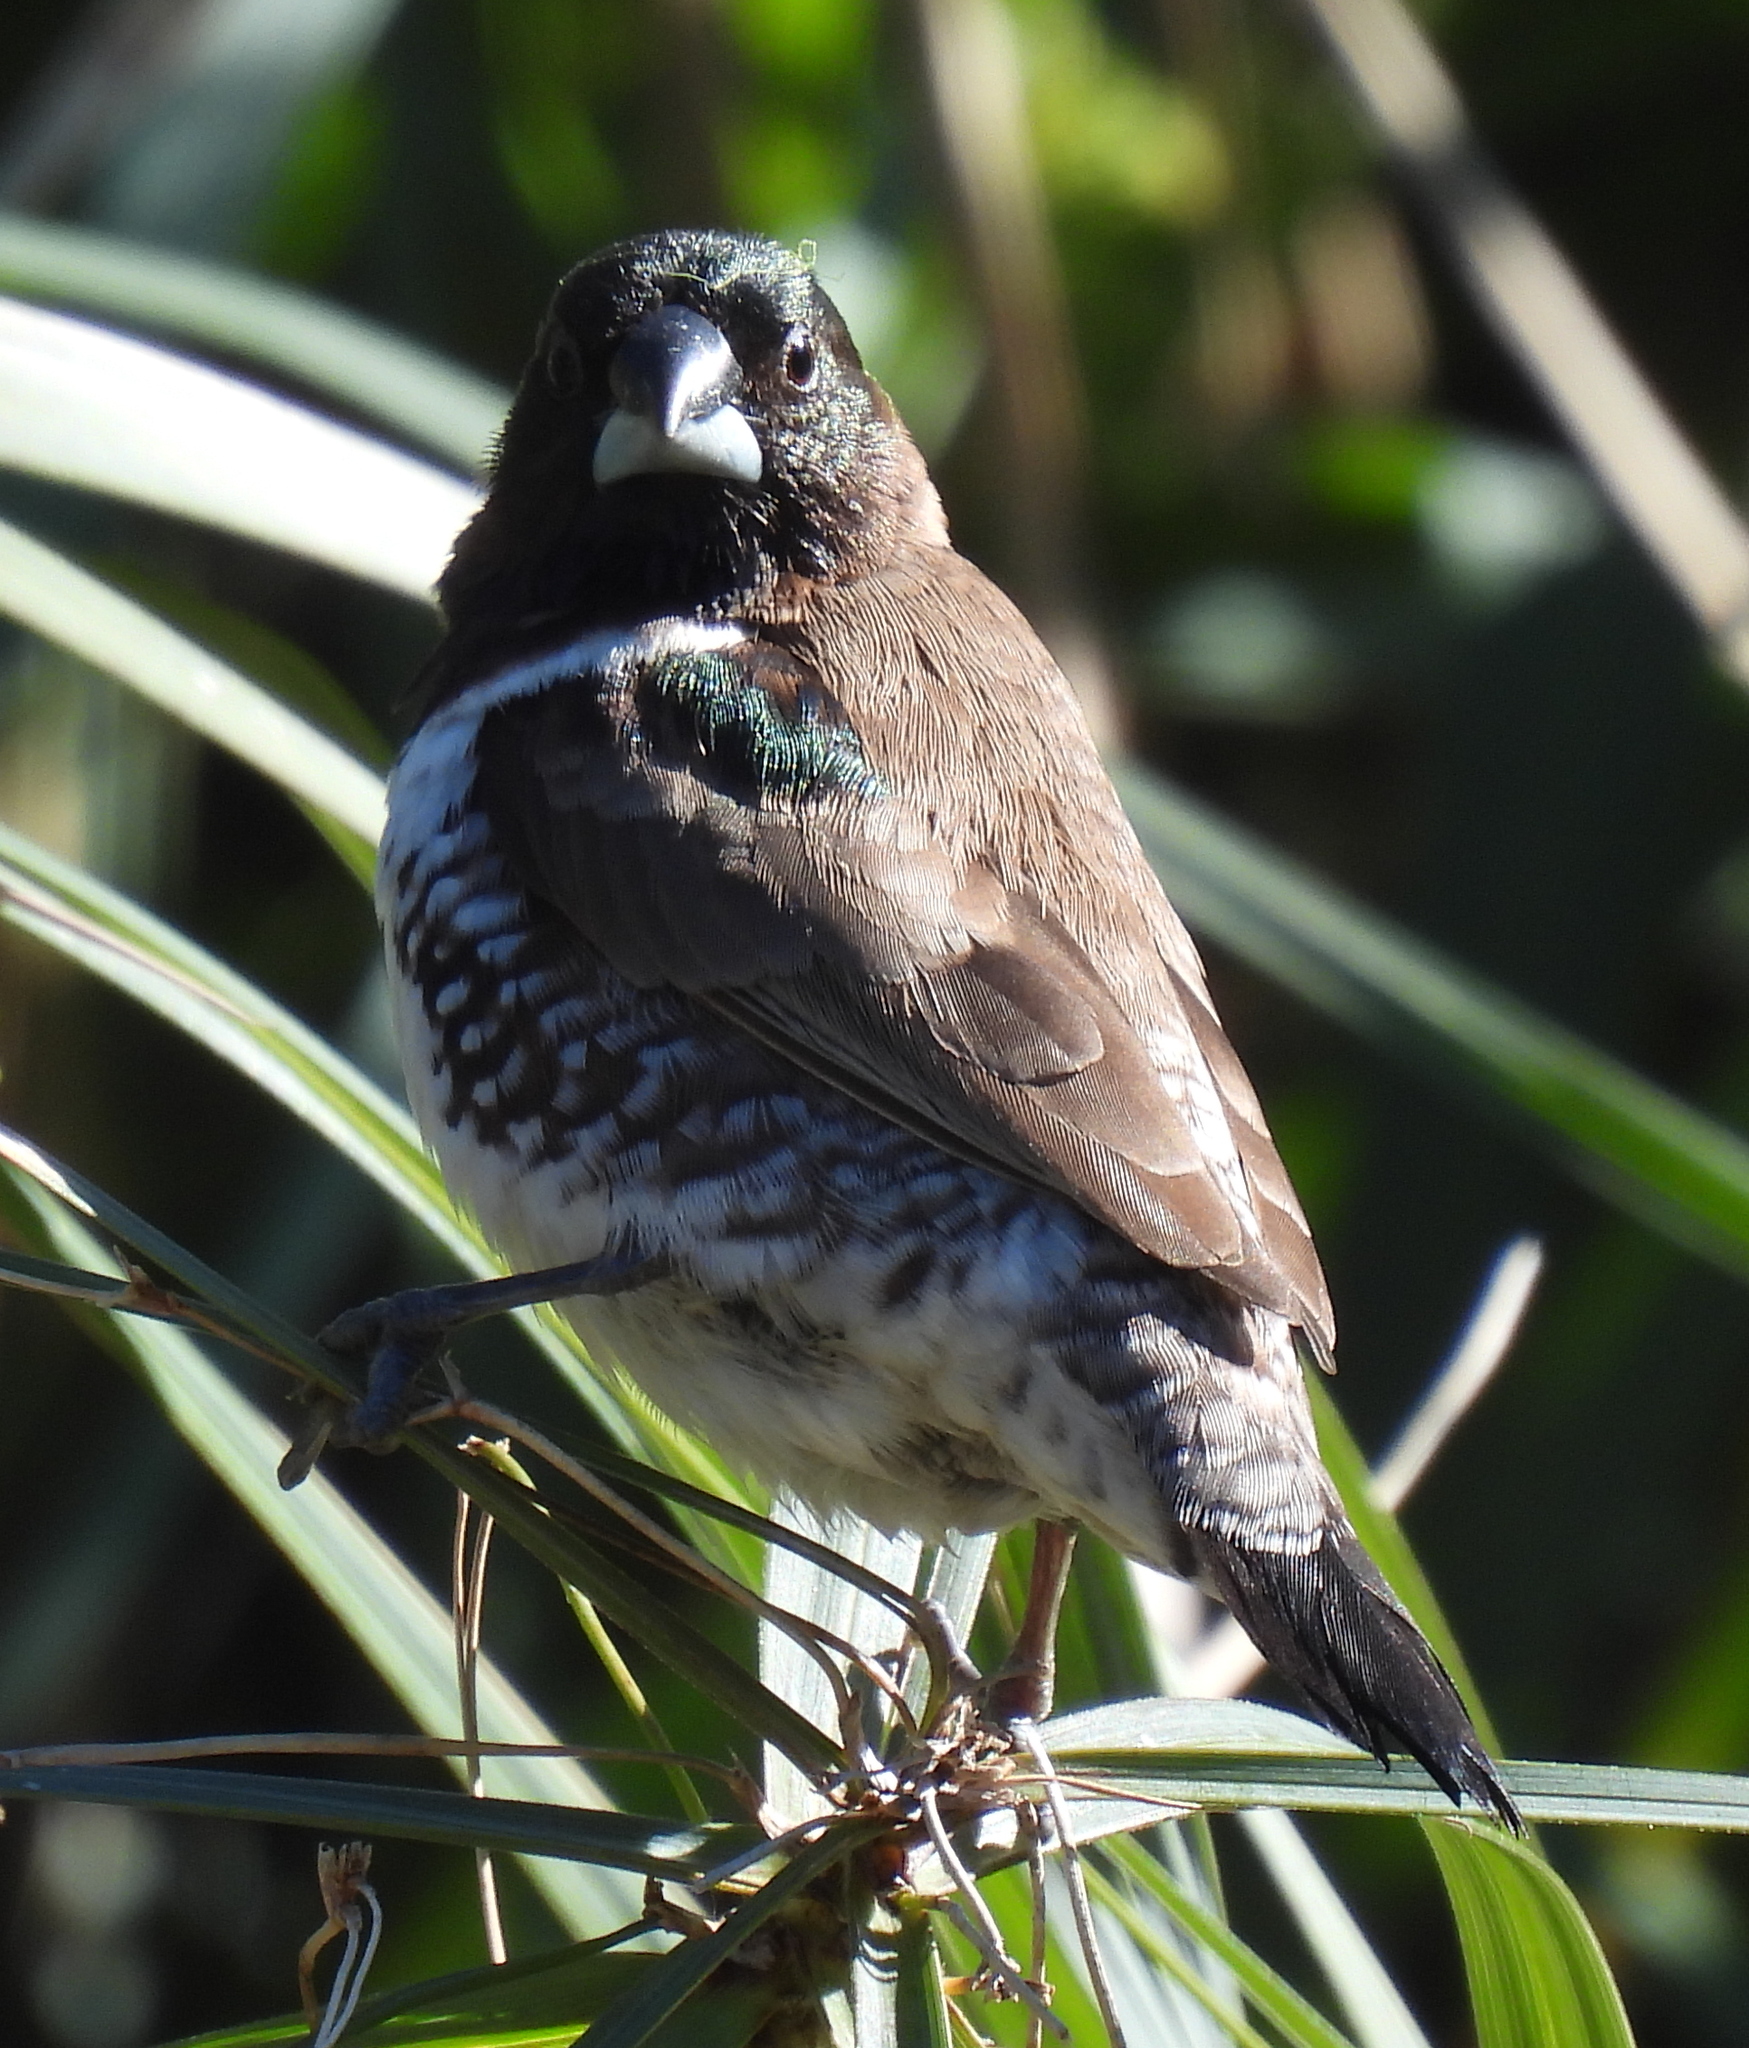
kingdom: Animalia
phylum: Chordata
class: Aves
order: Passeriformes
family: Estrildidae
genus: Lonchura
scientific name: Lonchura cucullata
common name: Bronze mannikin
